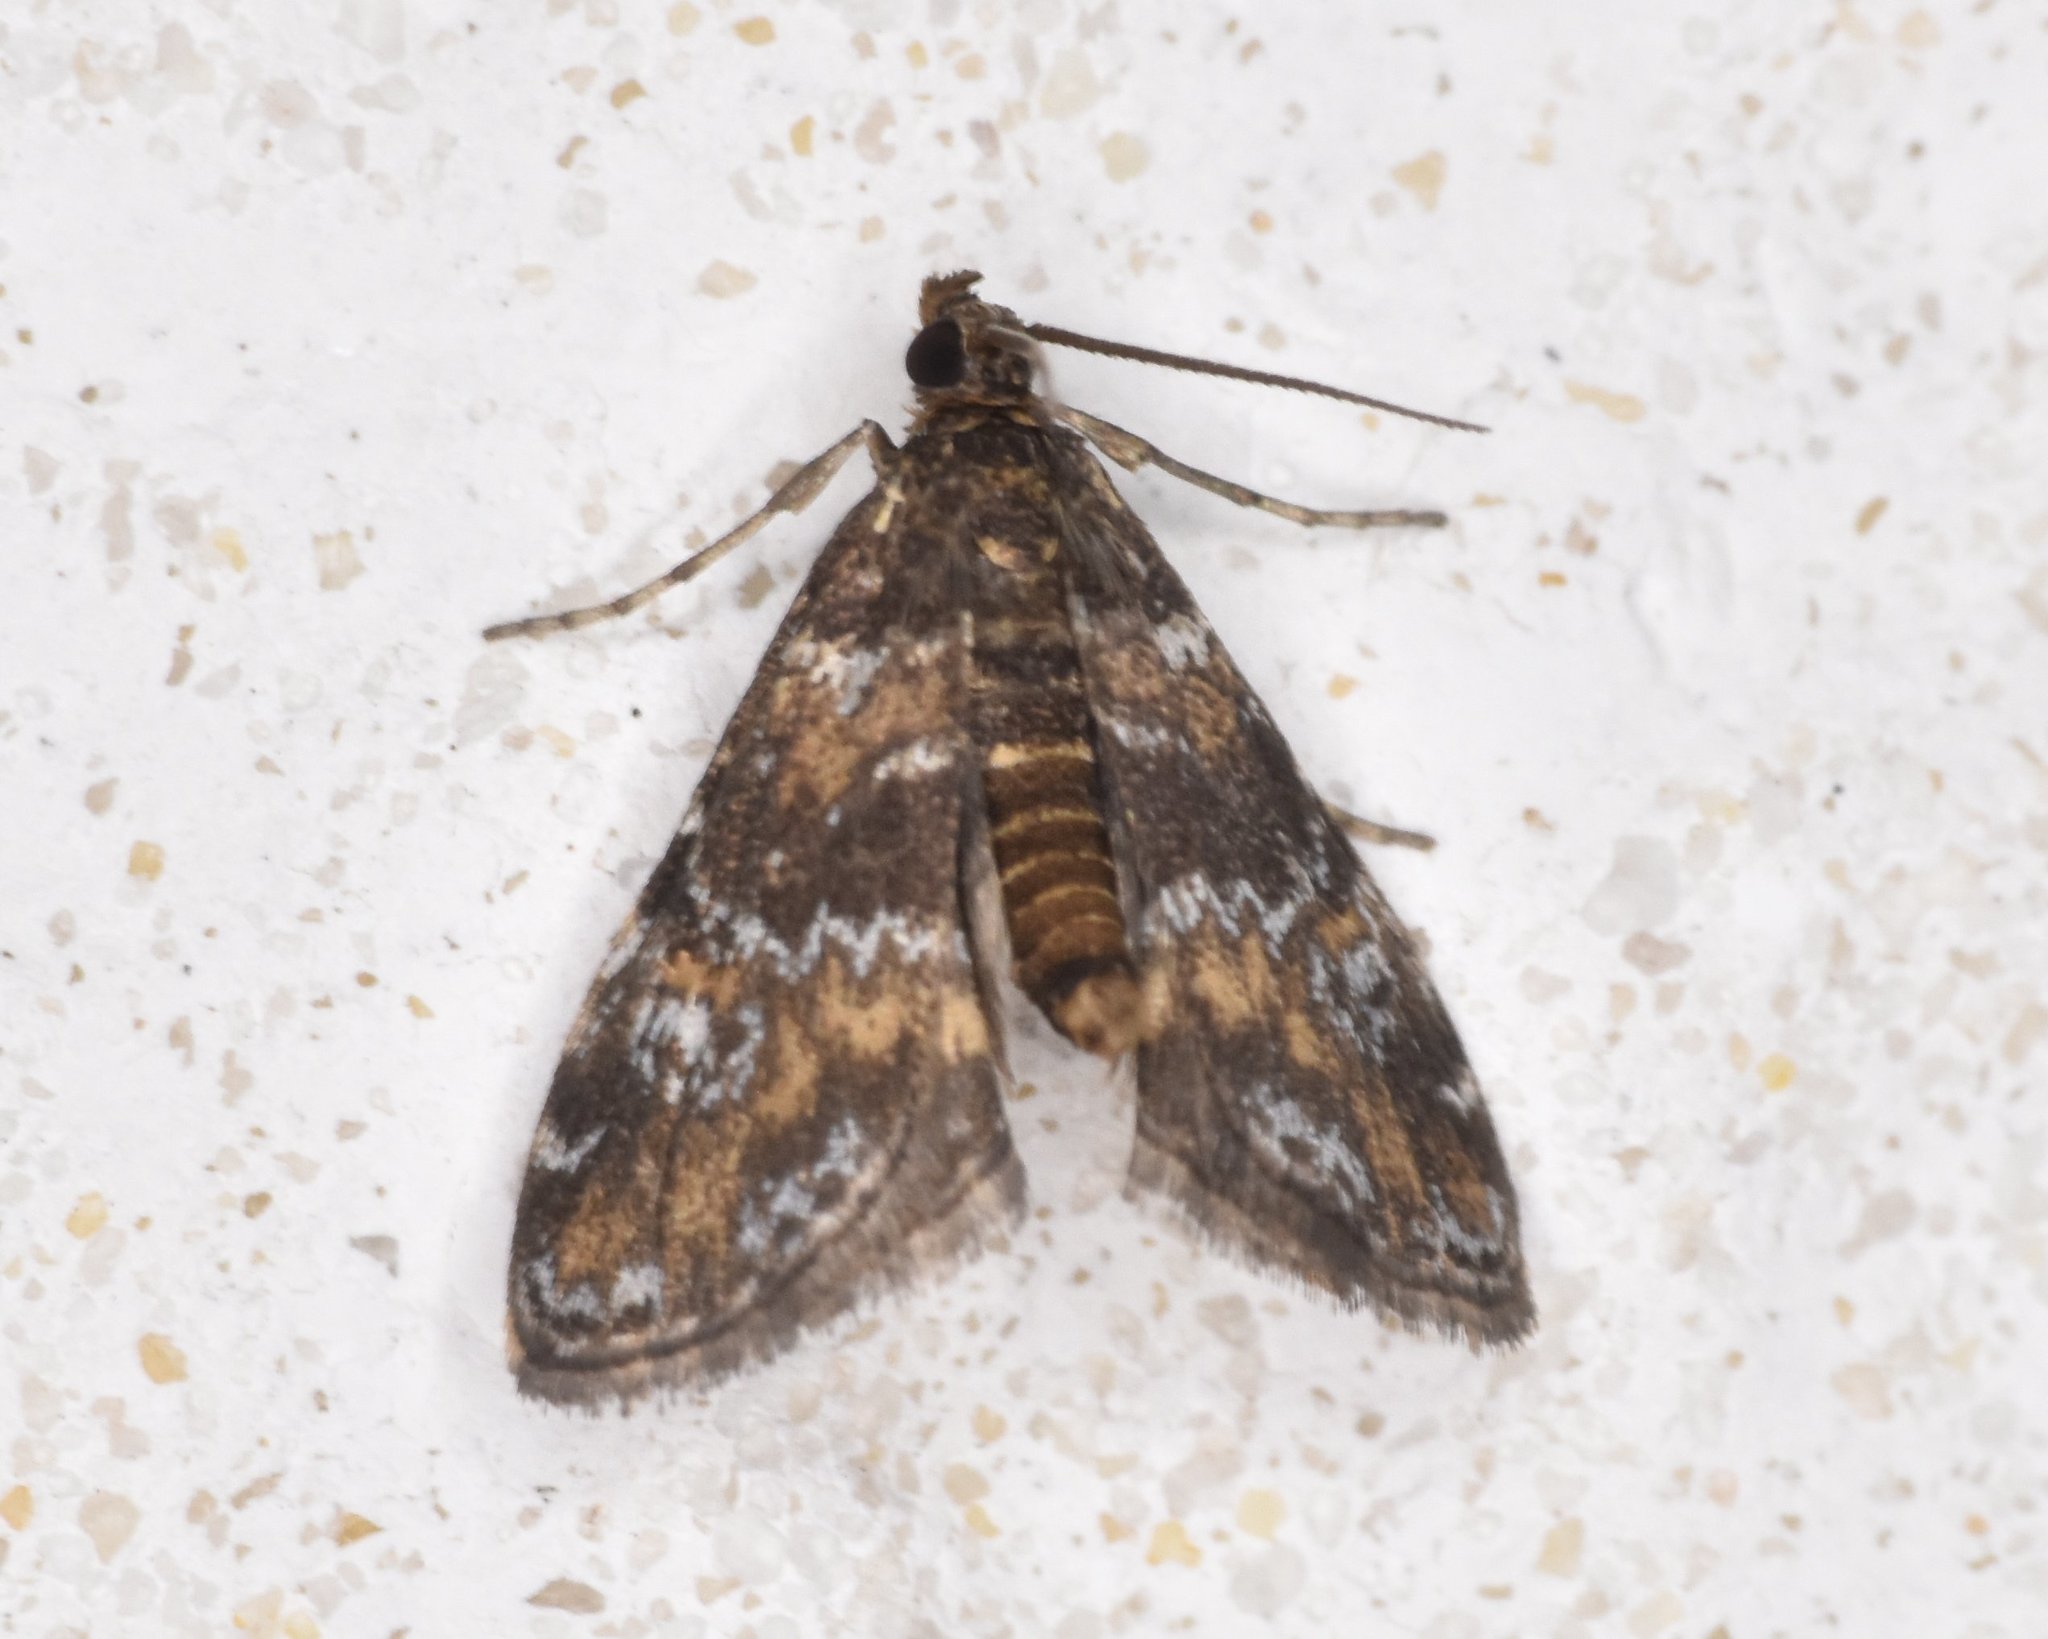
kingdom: Animalia
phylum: Arthropoda
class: Insecta
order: Lepidoptera
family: Crambidae
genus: Elophila
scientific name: Elophila obliteralis
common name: Waterlily leafcutter moth
